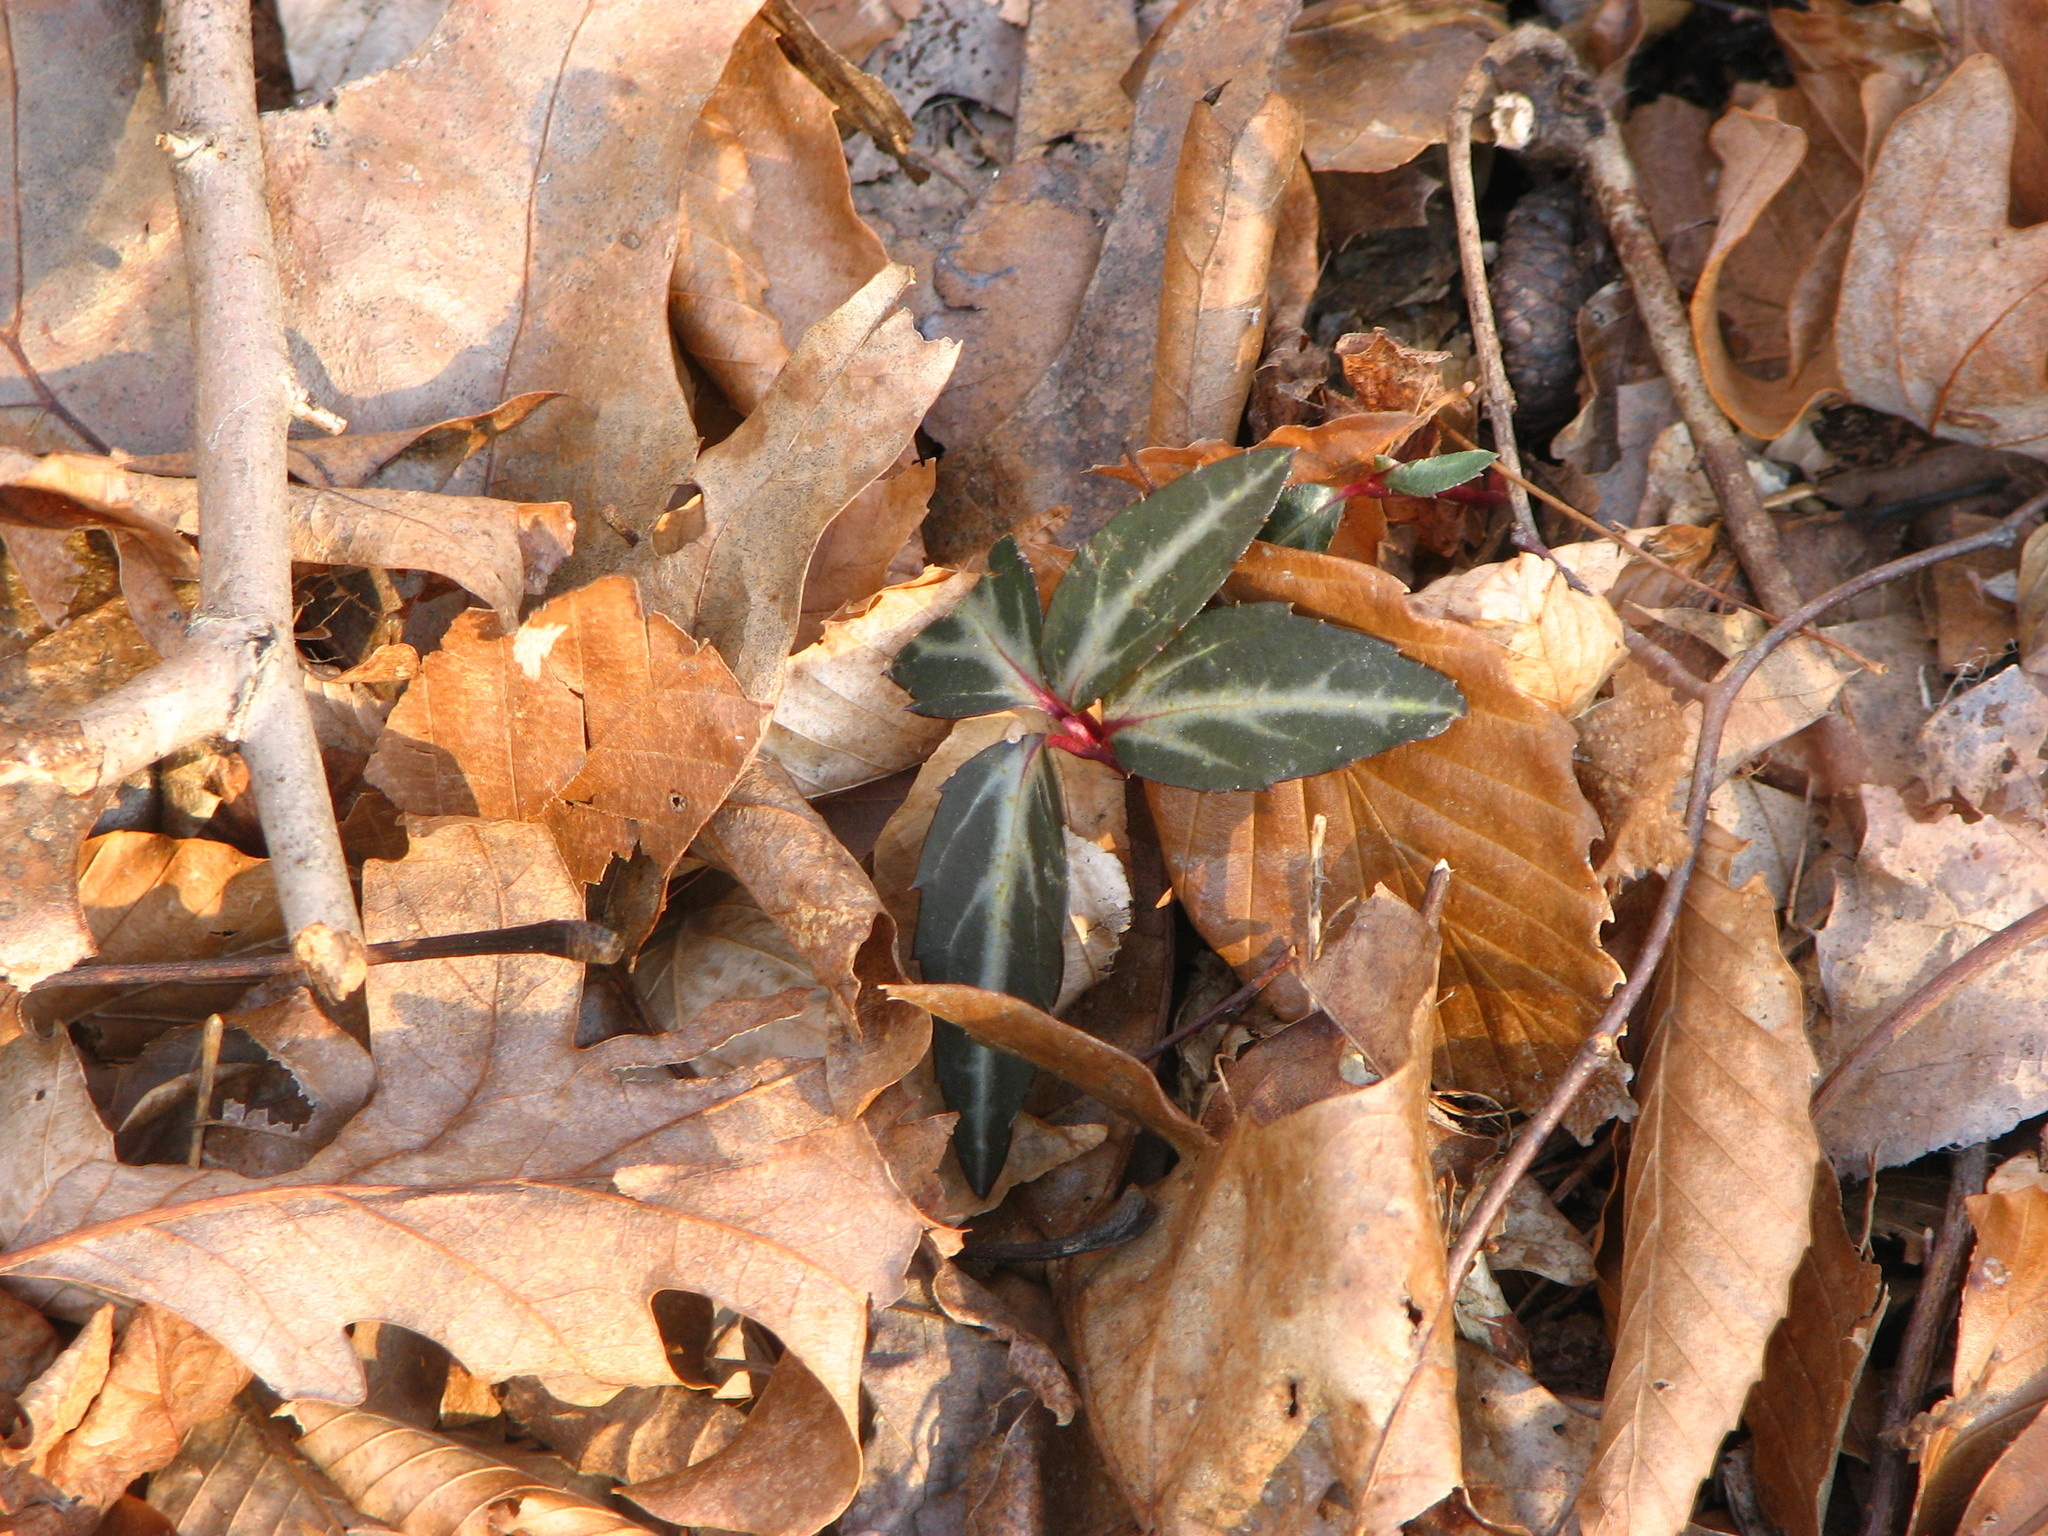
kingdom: Plantae
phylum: Tracheophyta
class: Magnoliopsida
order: Ericales
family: Ericaceae
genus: Chimaphila
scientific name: Chimaphila maculata
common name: Spotted pipsissewa
